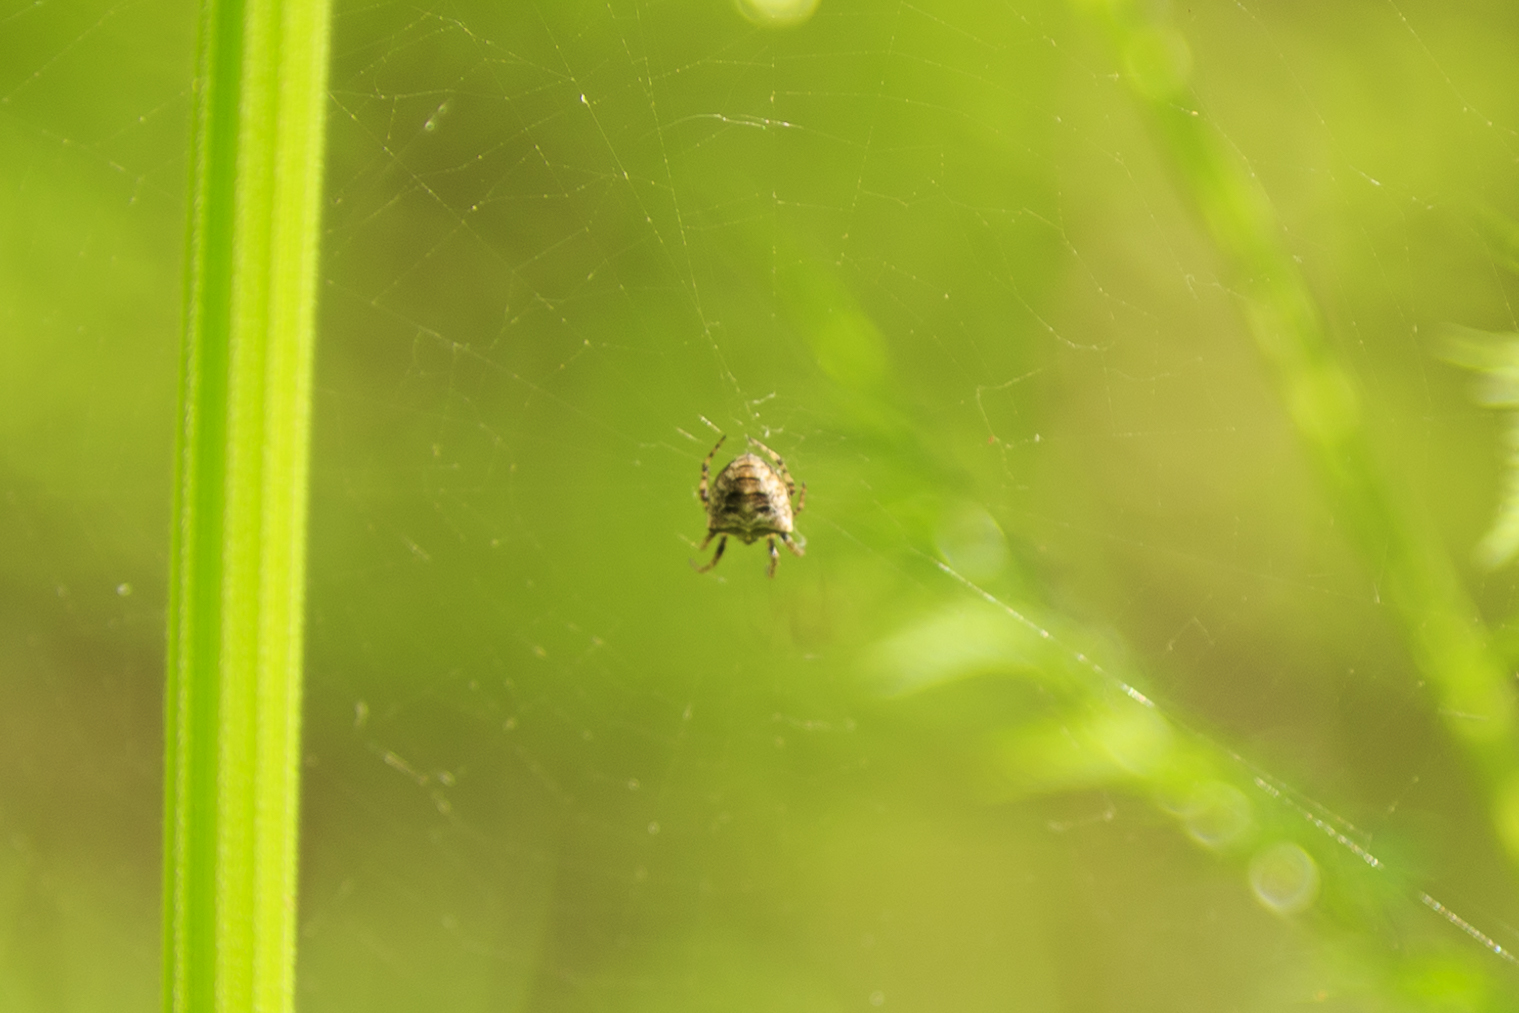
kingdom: Animalia
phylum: Arthropoda
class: Arachnida
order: Araneae
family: Araneidae
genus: Gibbaranea
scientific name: Gibbaranea bituberculata
